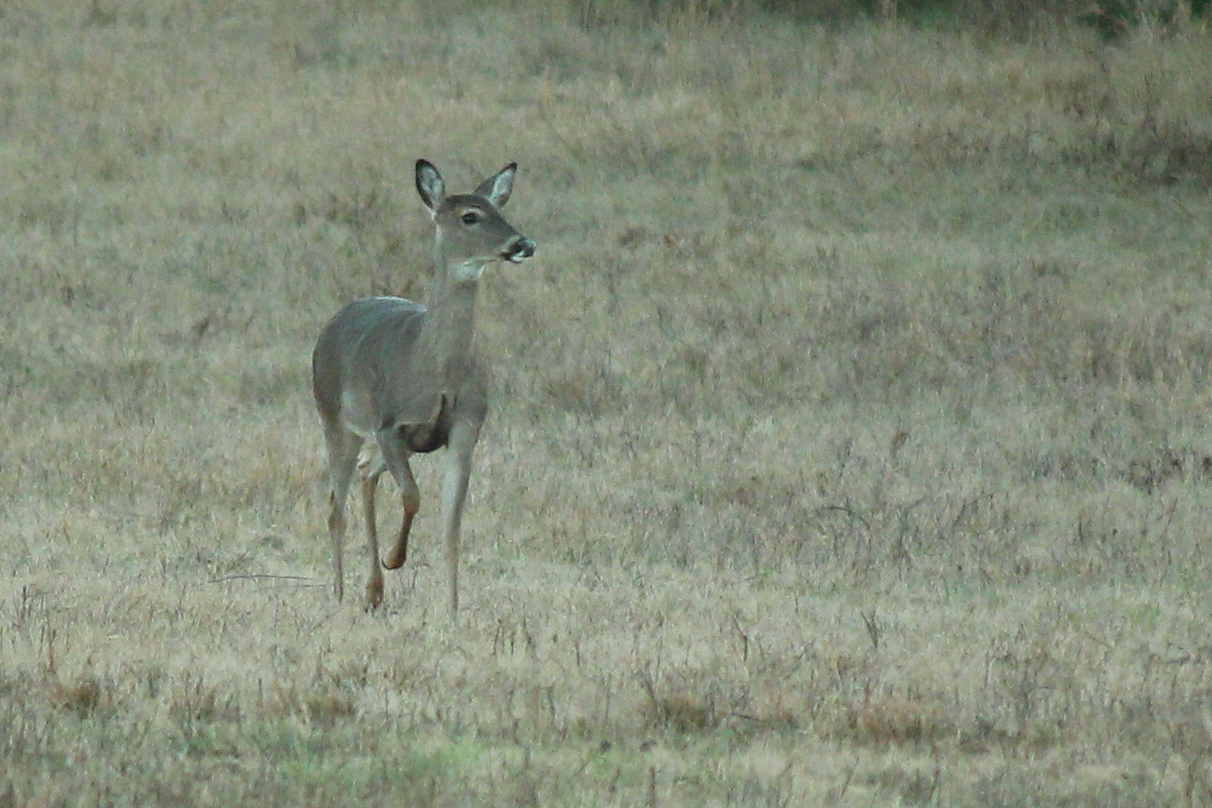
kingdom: Animalia
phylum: Chordata
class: Mammalia
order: Artiodactyla
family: Cervidae
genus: Odocoileus
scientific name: Odocoileus virginianus
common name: White-tailed deer
